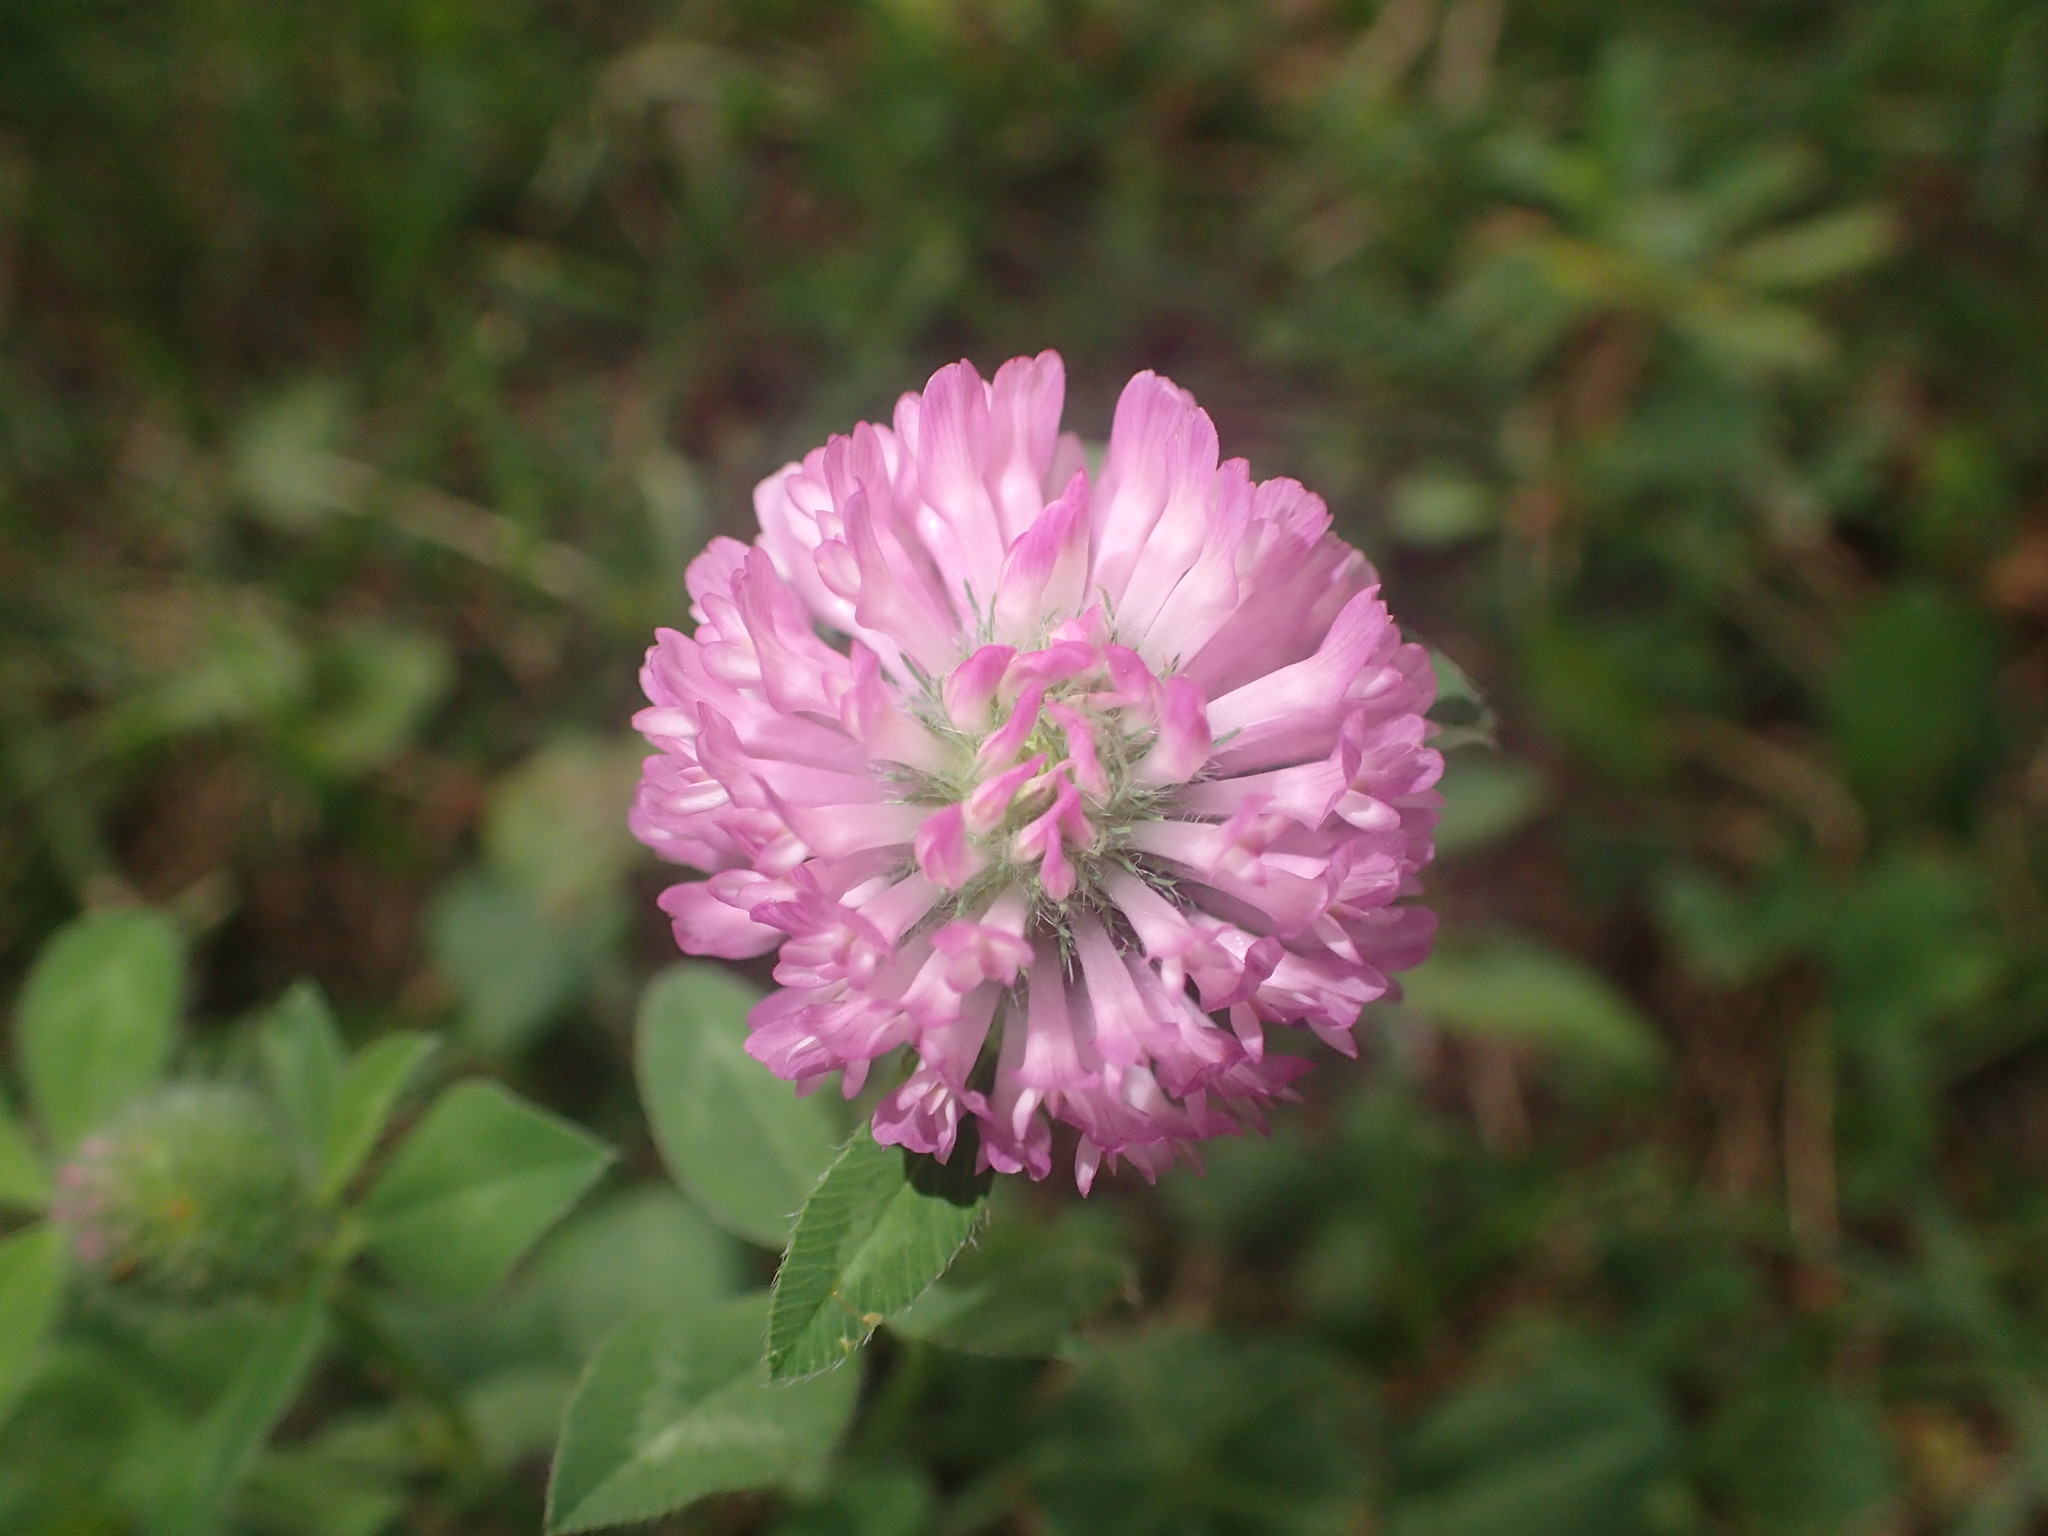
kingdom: Plantae
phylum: Tracheophyta
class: Magnoliopsida
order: Fabales
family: Fabaceae
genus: Trifolium
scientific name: Trifolium pratense
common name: Red clover
